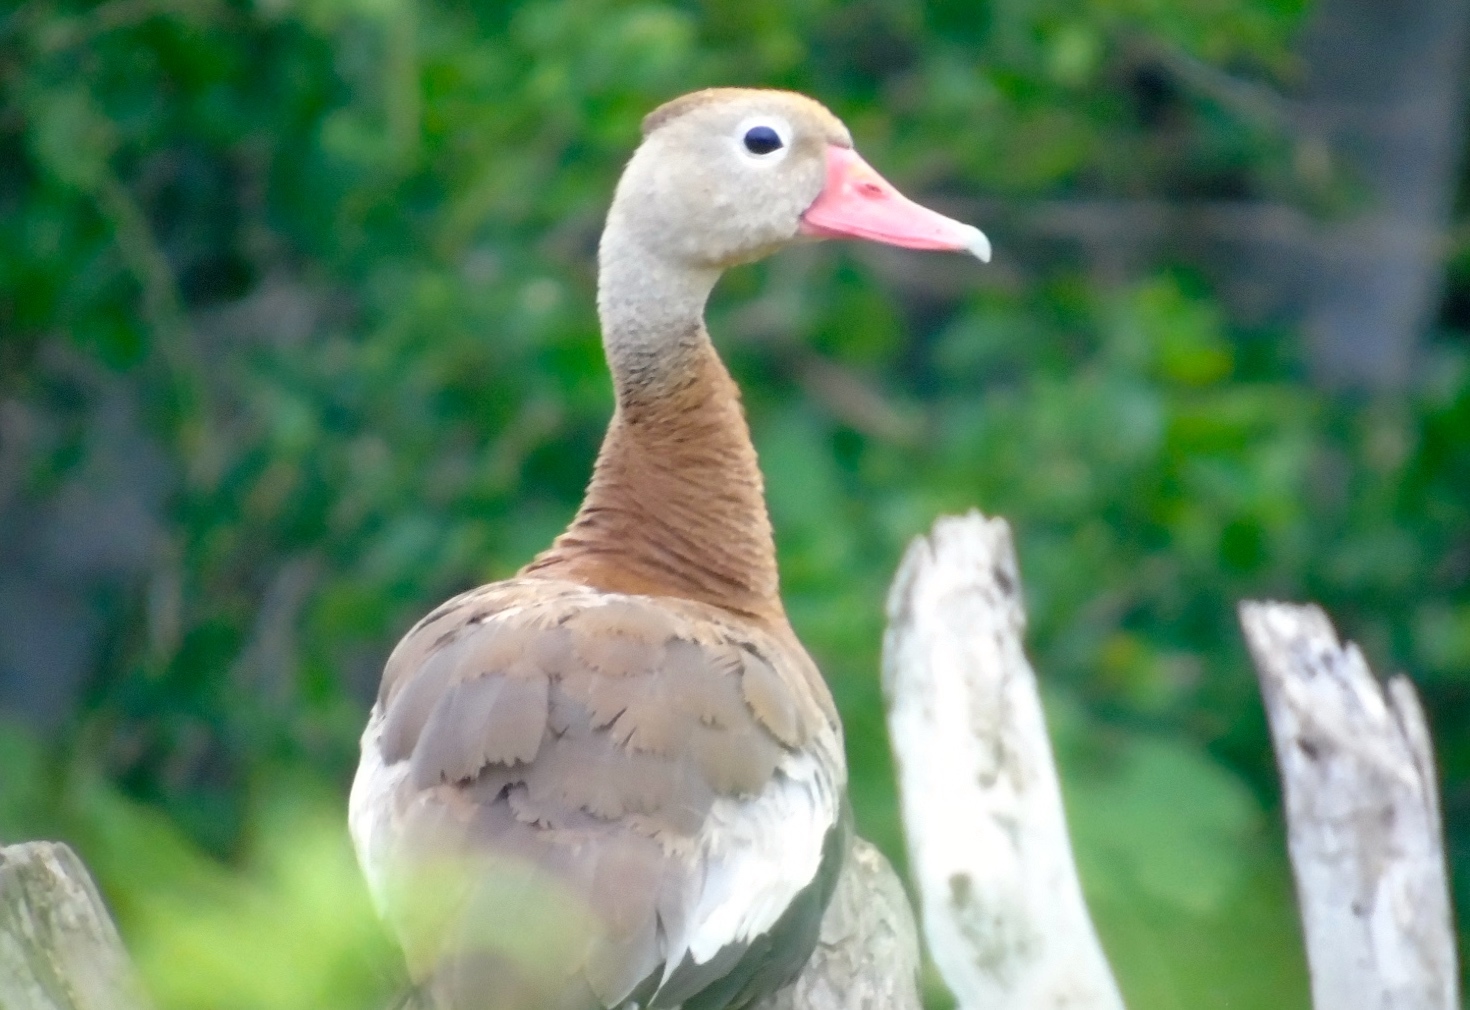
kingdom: Animalia
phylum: Chordata
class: Aves
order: Anseriformes
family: Anatidae
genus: Dendrocygna
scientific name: Dendrocygna autumnalis
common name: Black-bellied whistling duck
